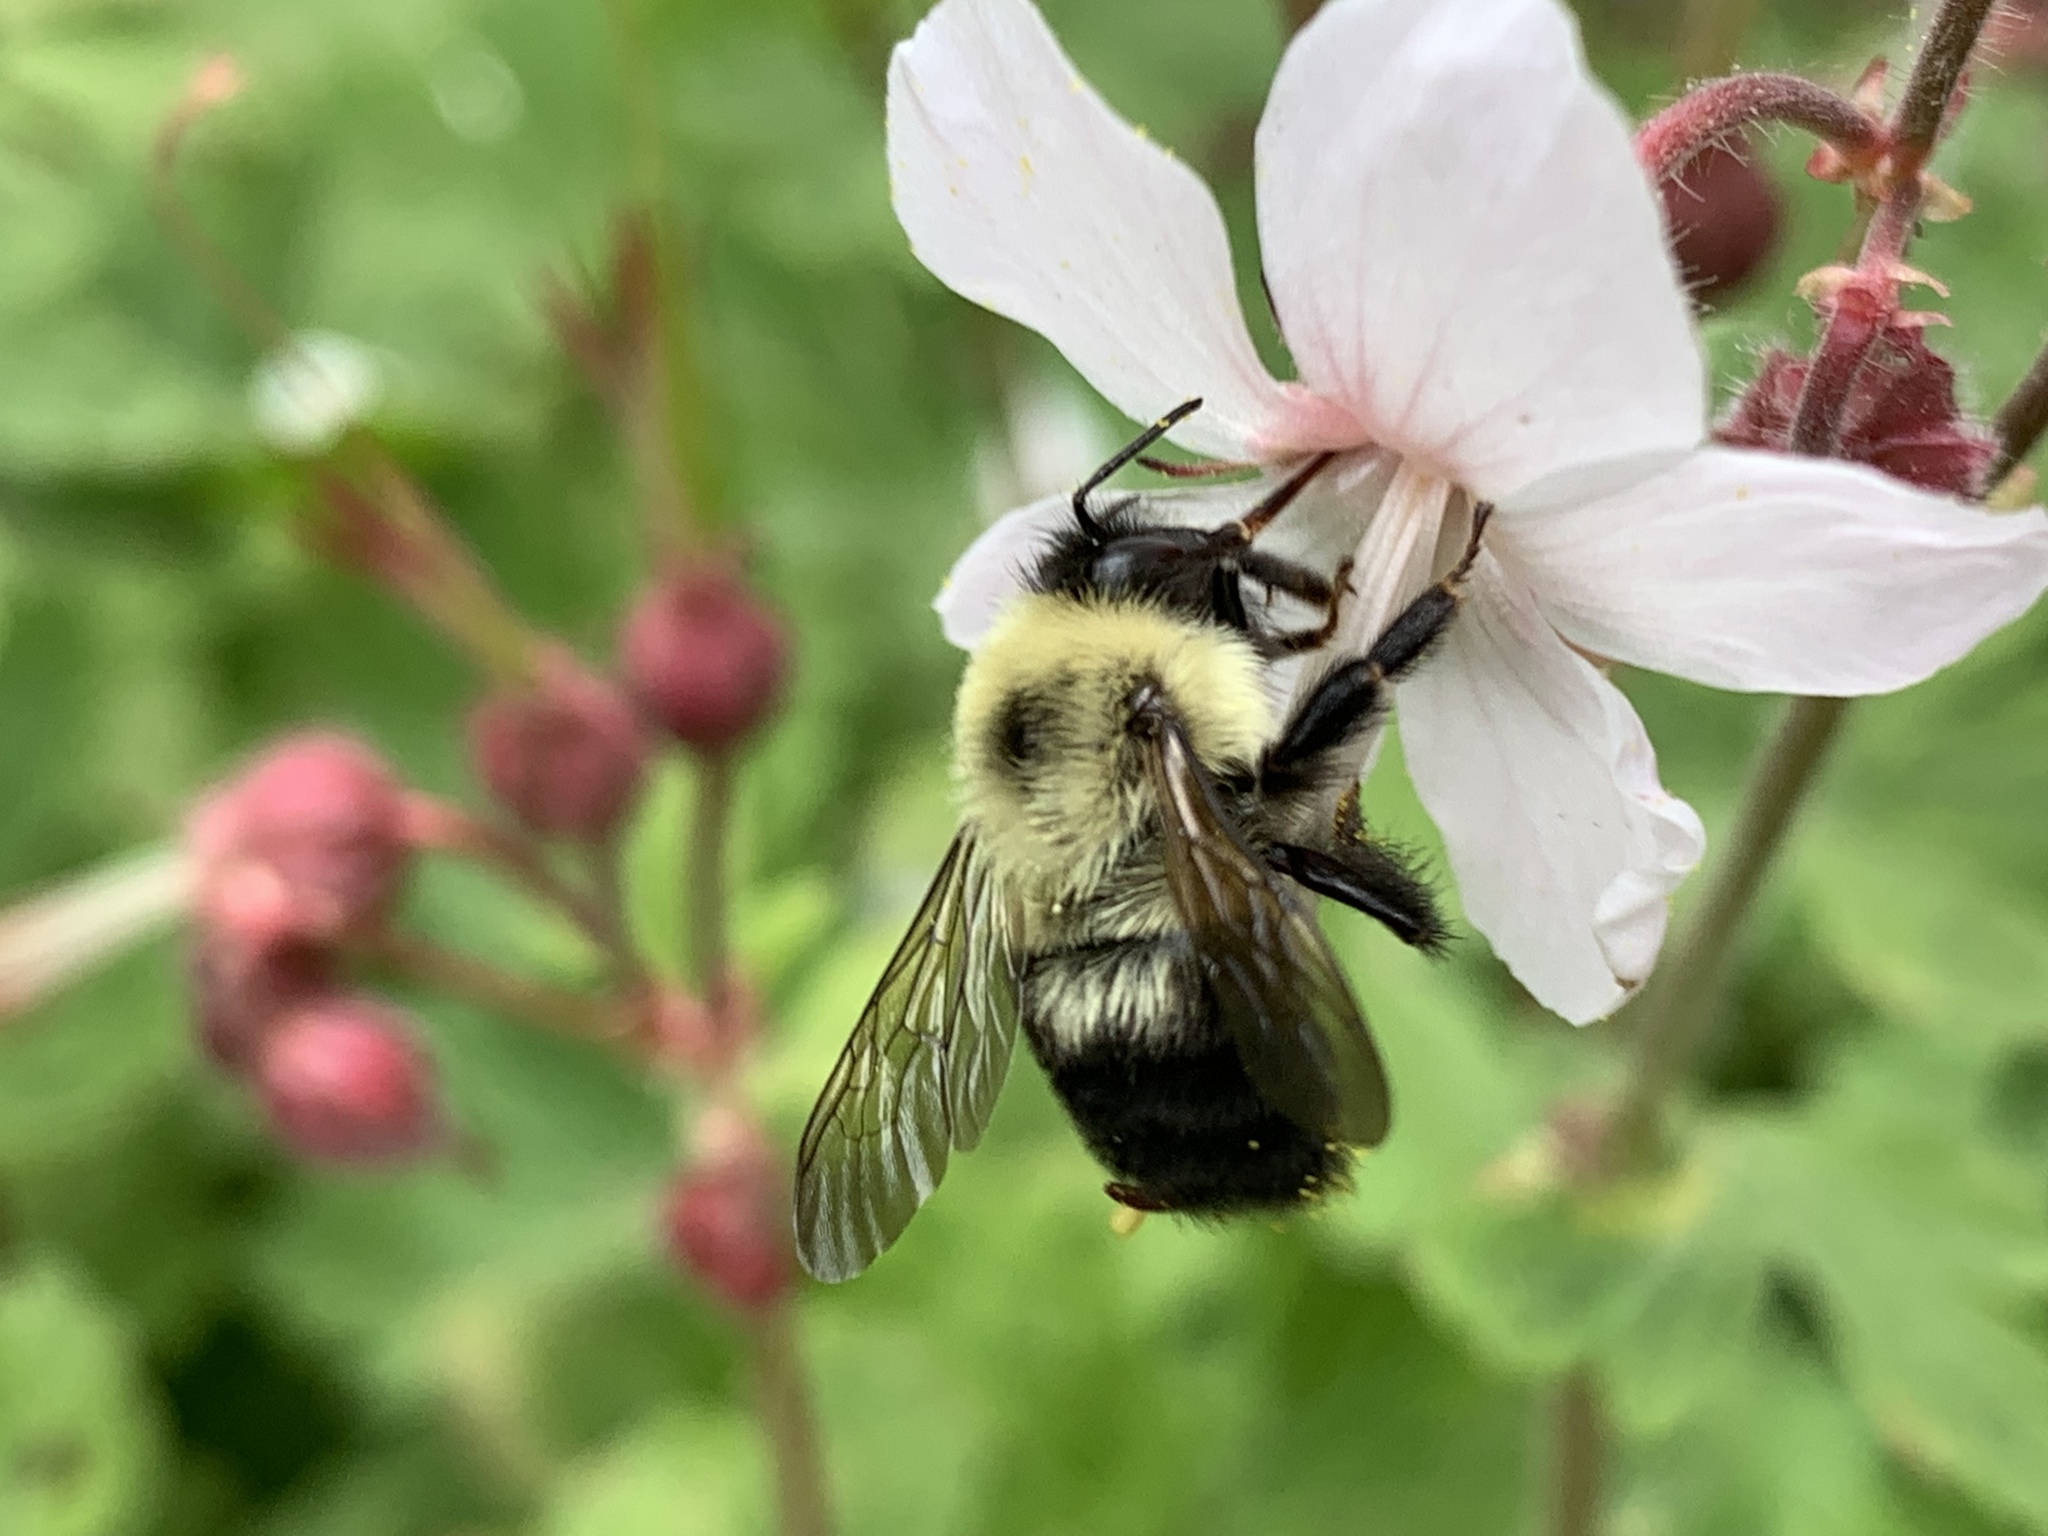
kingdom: Animalia
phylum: Arthropoda
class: Insecta
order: Hymenoptera
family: Apidae
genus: Bombus
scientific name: Bombus bimaculatus
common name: Two-spotted bumble bee
